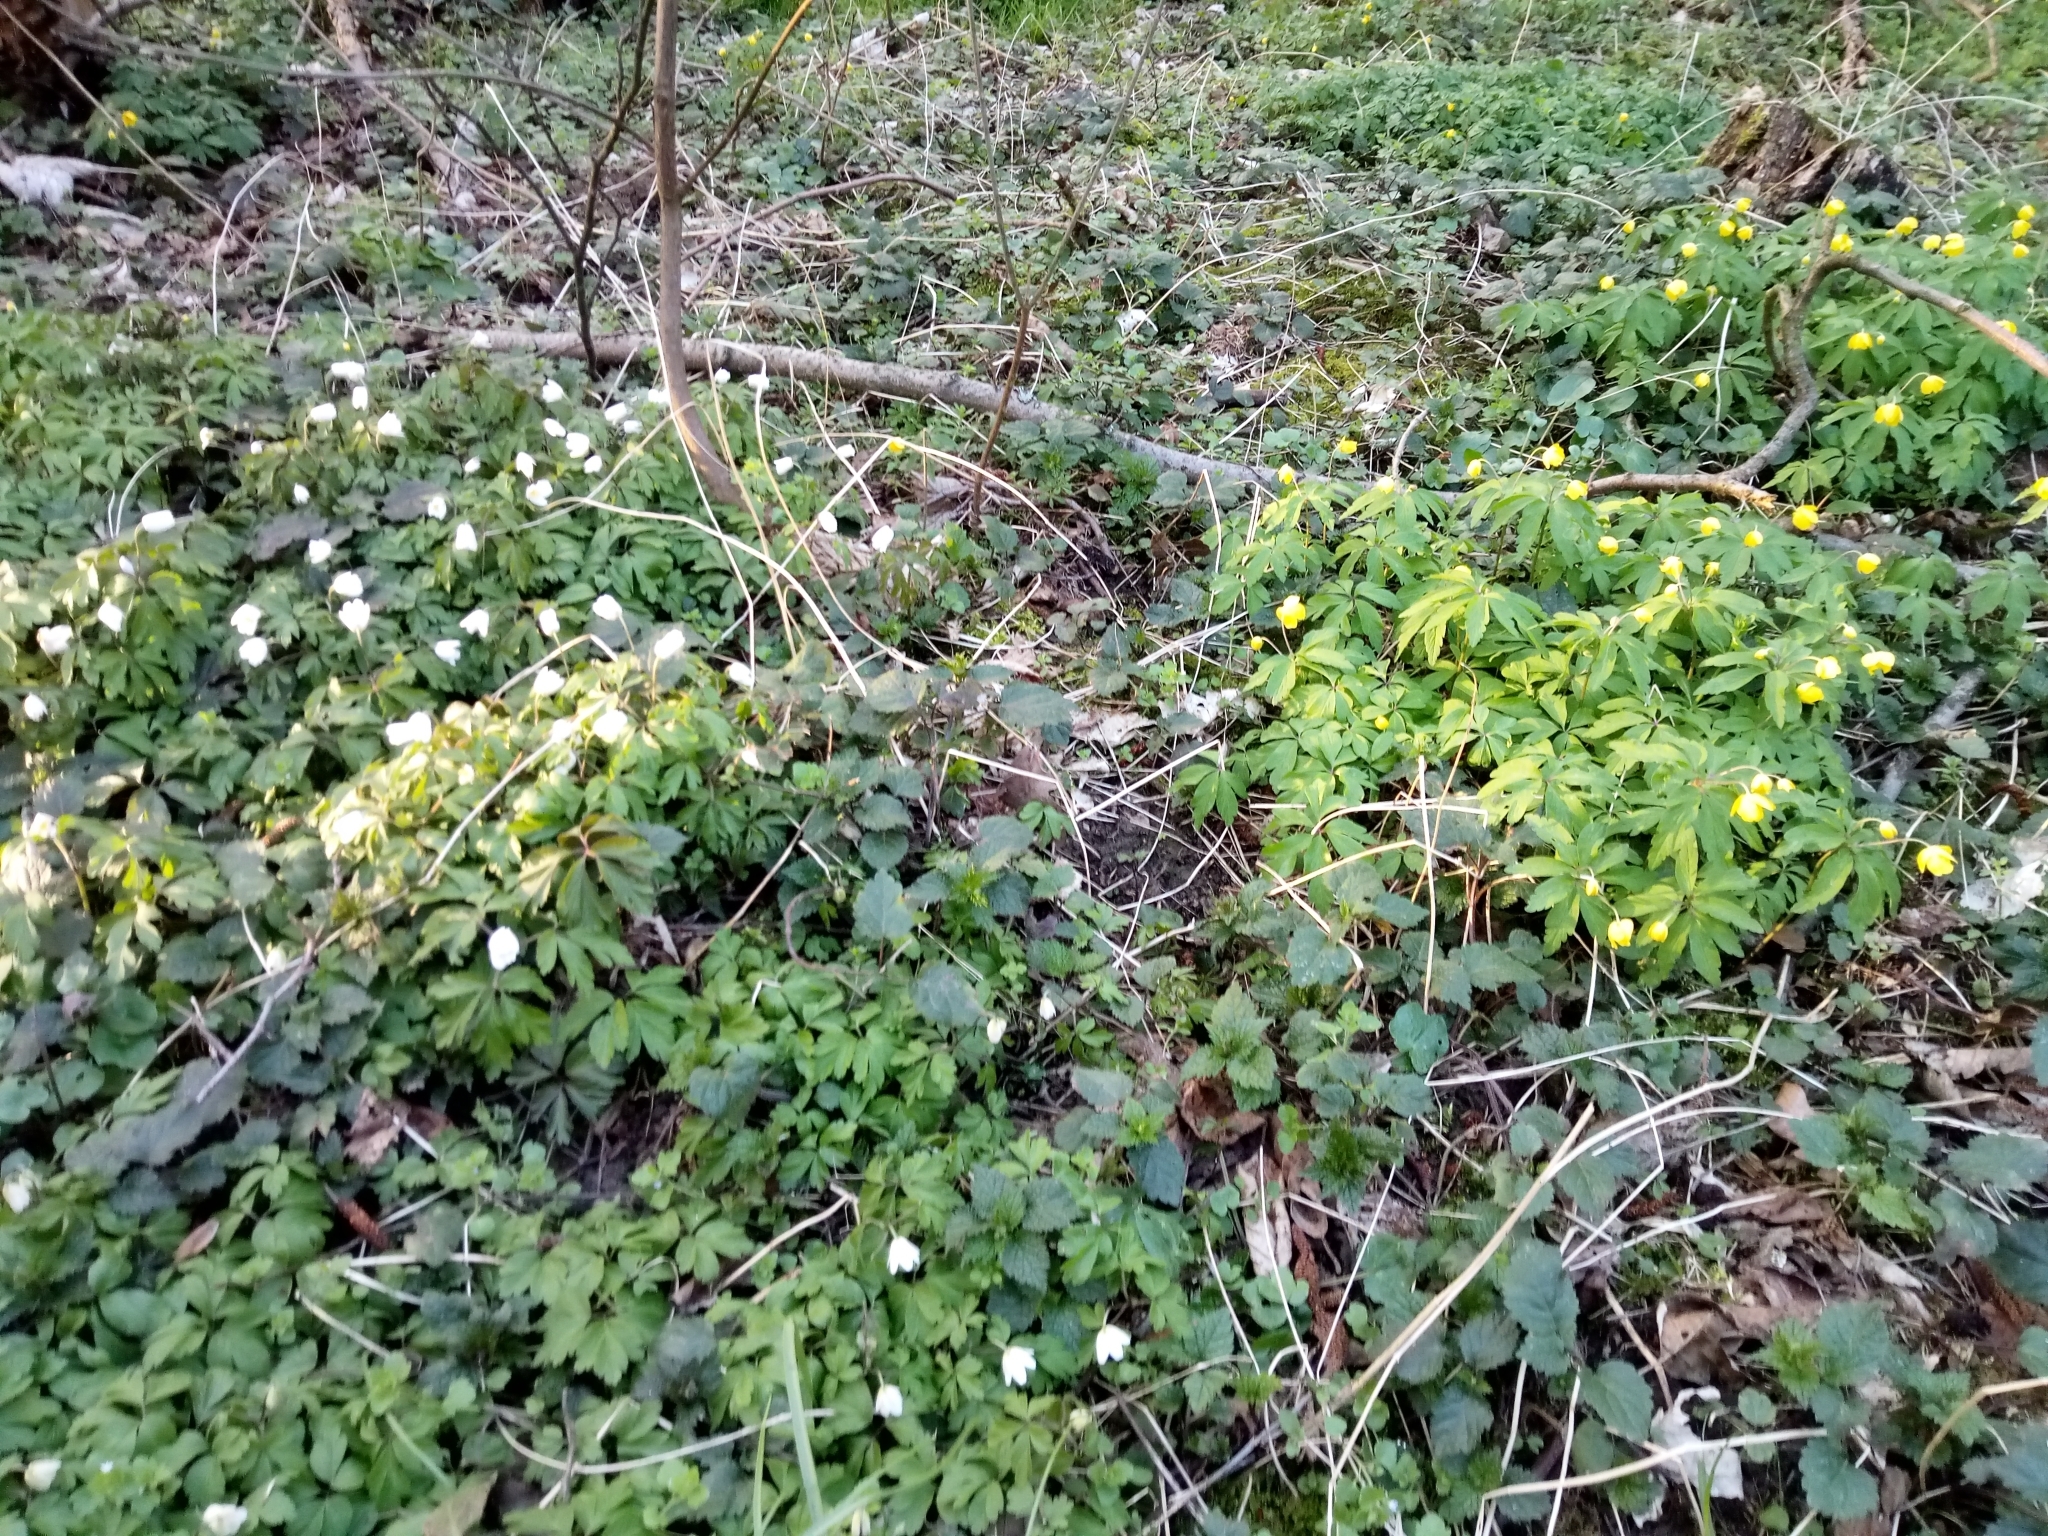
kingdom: Plantae
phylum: Tracheophyta
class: Magnoliopsida
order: Ranunculales
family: Ranunculaceae
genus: Anemone
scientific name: Anemone nemorosa
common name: Wood anemone
